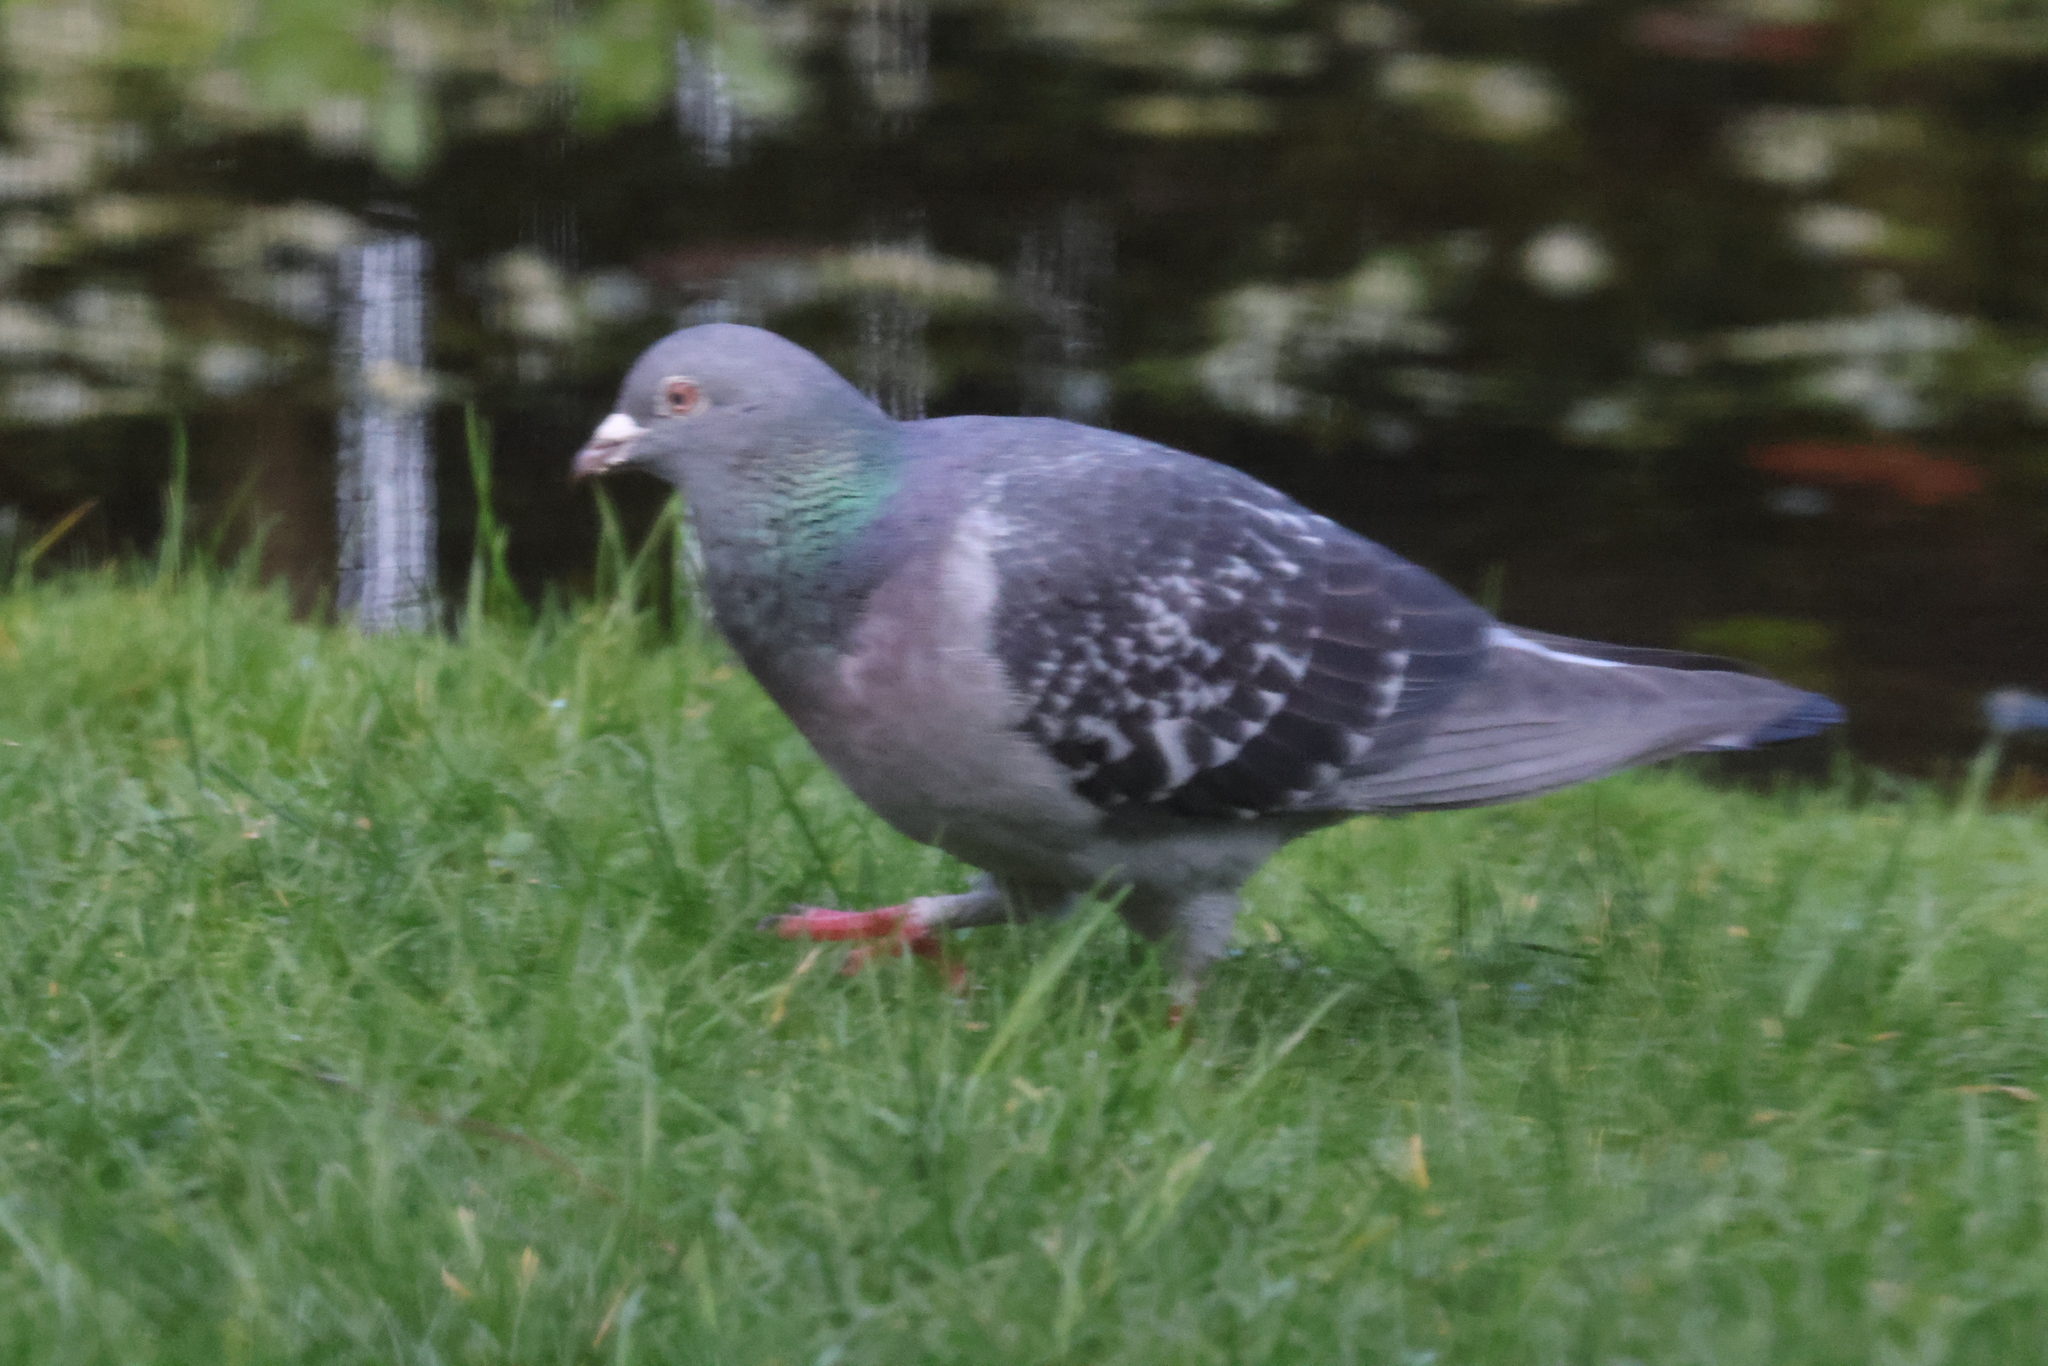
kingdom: Animalia
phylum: Chordata
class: Aves
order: Columbiformes
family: Columbidae
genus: Columba
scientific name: Columba livia
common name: Rock pigeon
